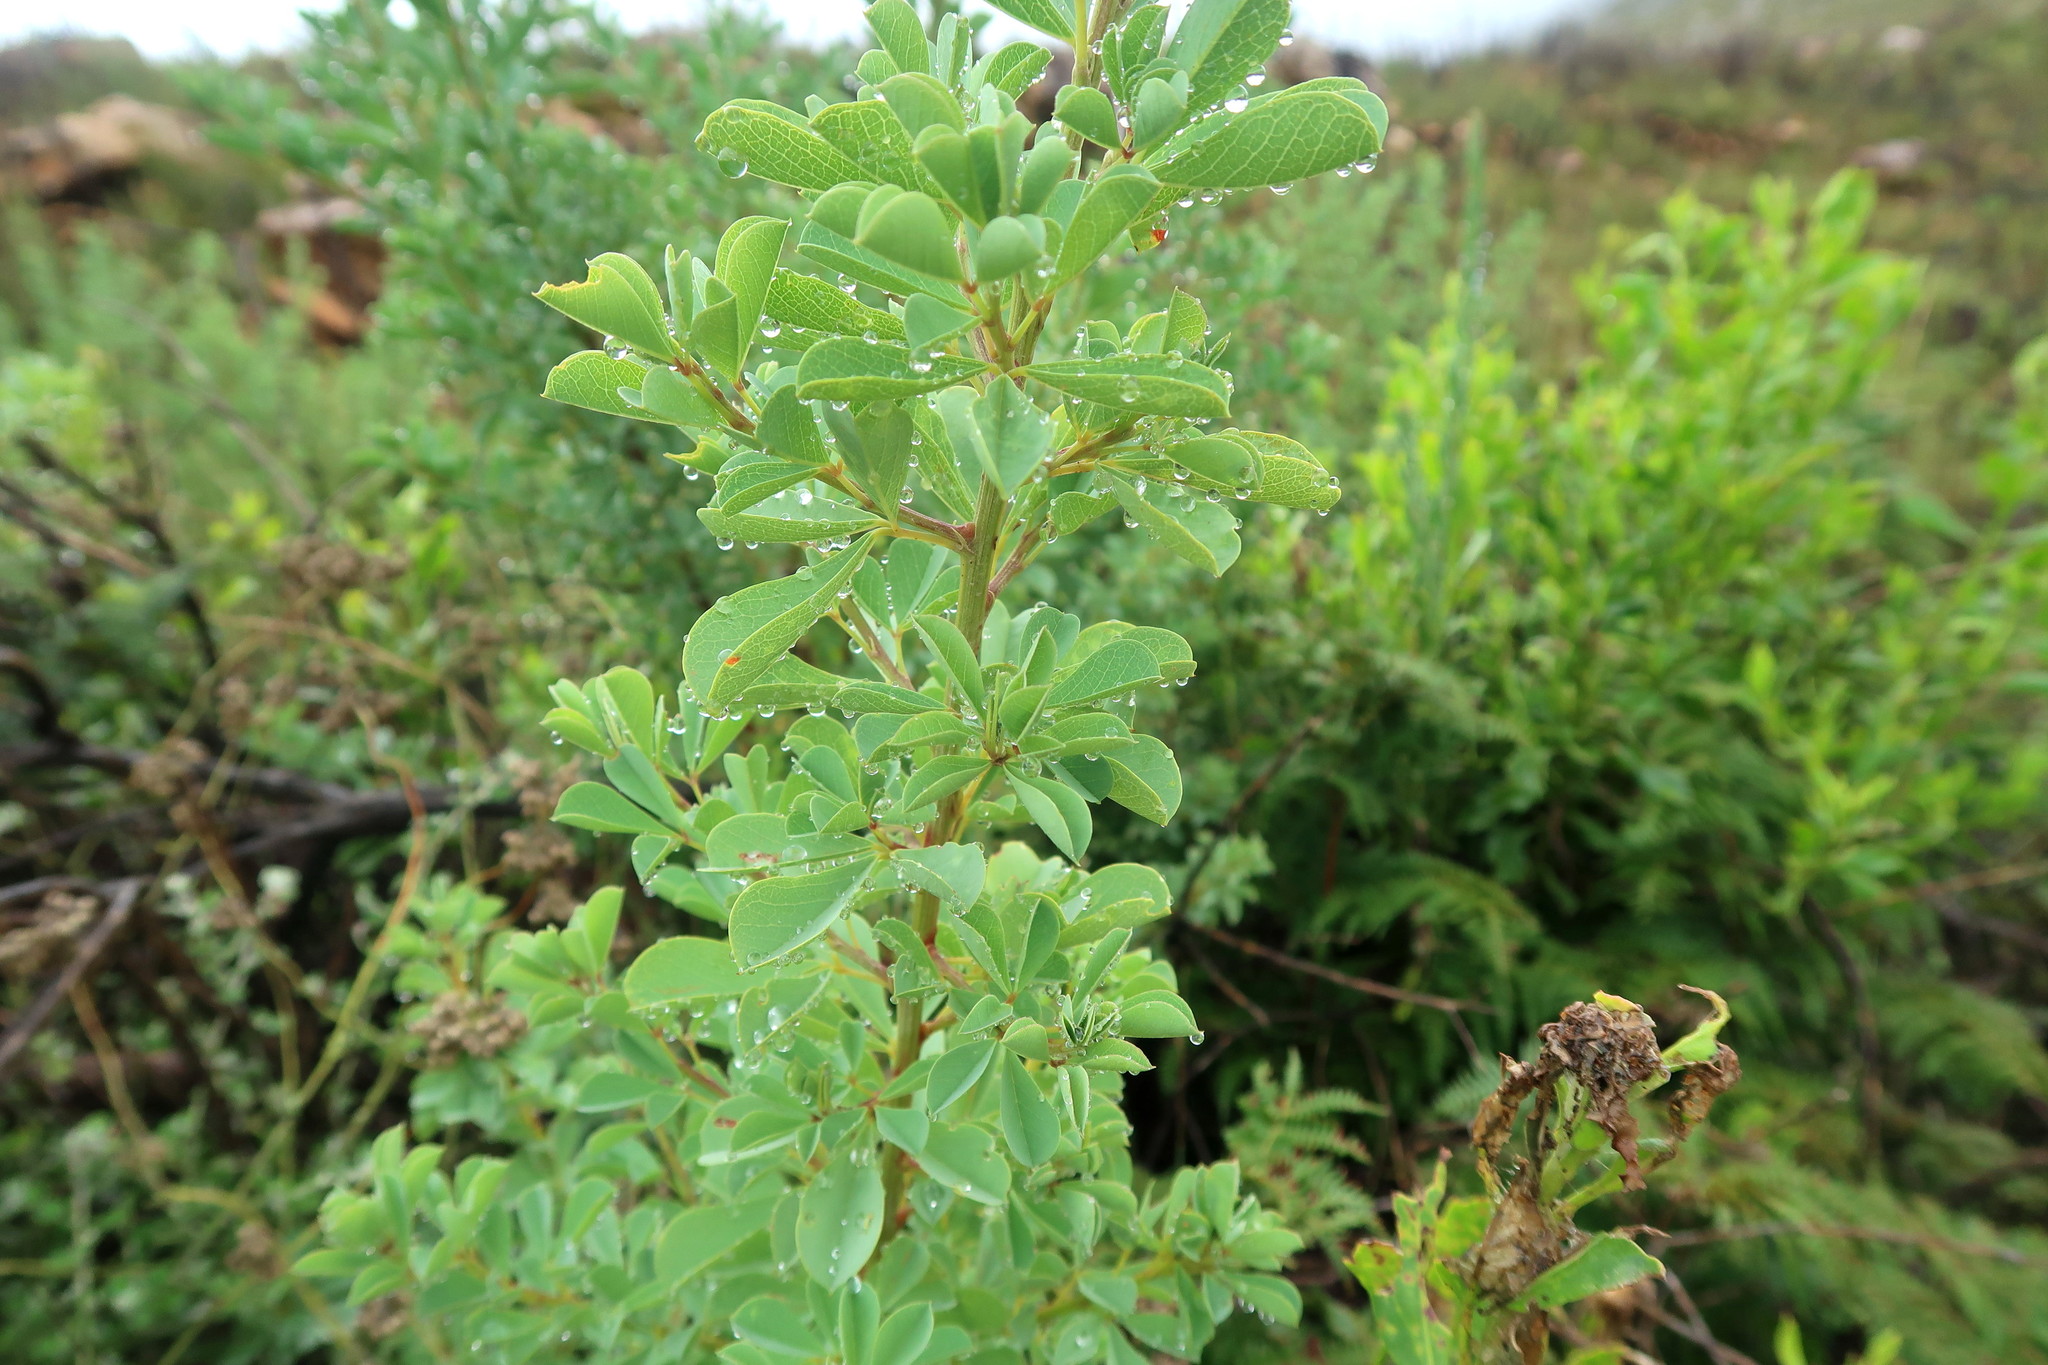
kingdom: Plantae
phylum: Tracheophyta
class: Magnoliopsida
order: Fabales
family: Fabaceae
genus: Hypocalyptus
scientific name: Hypocalyptus sophoroides
